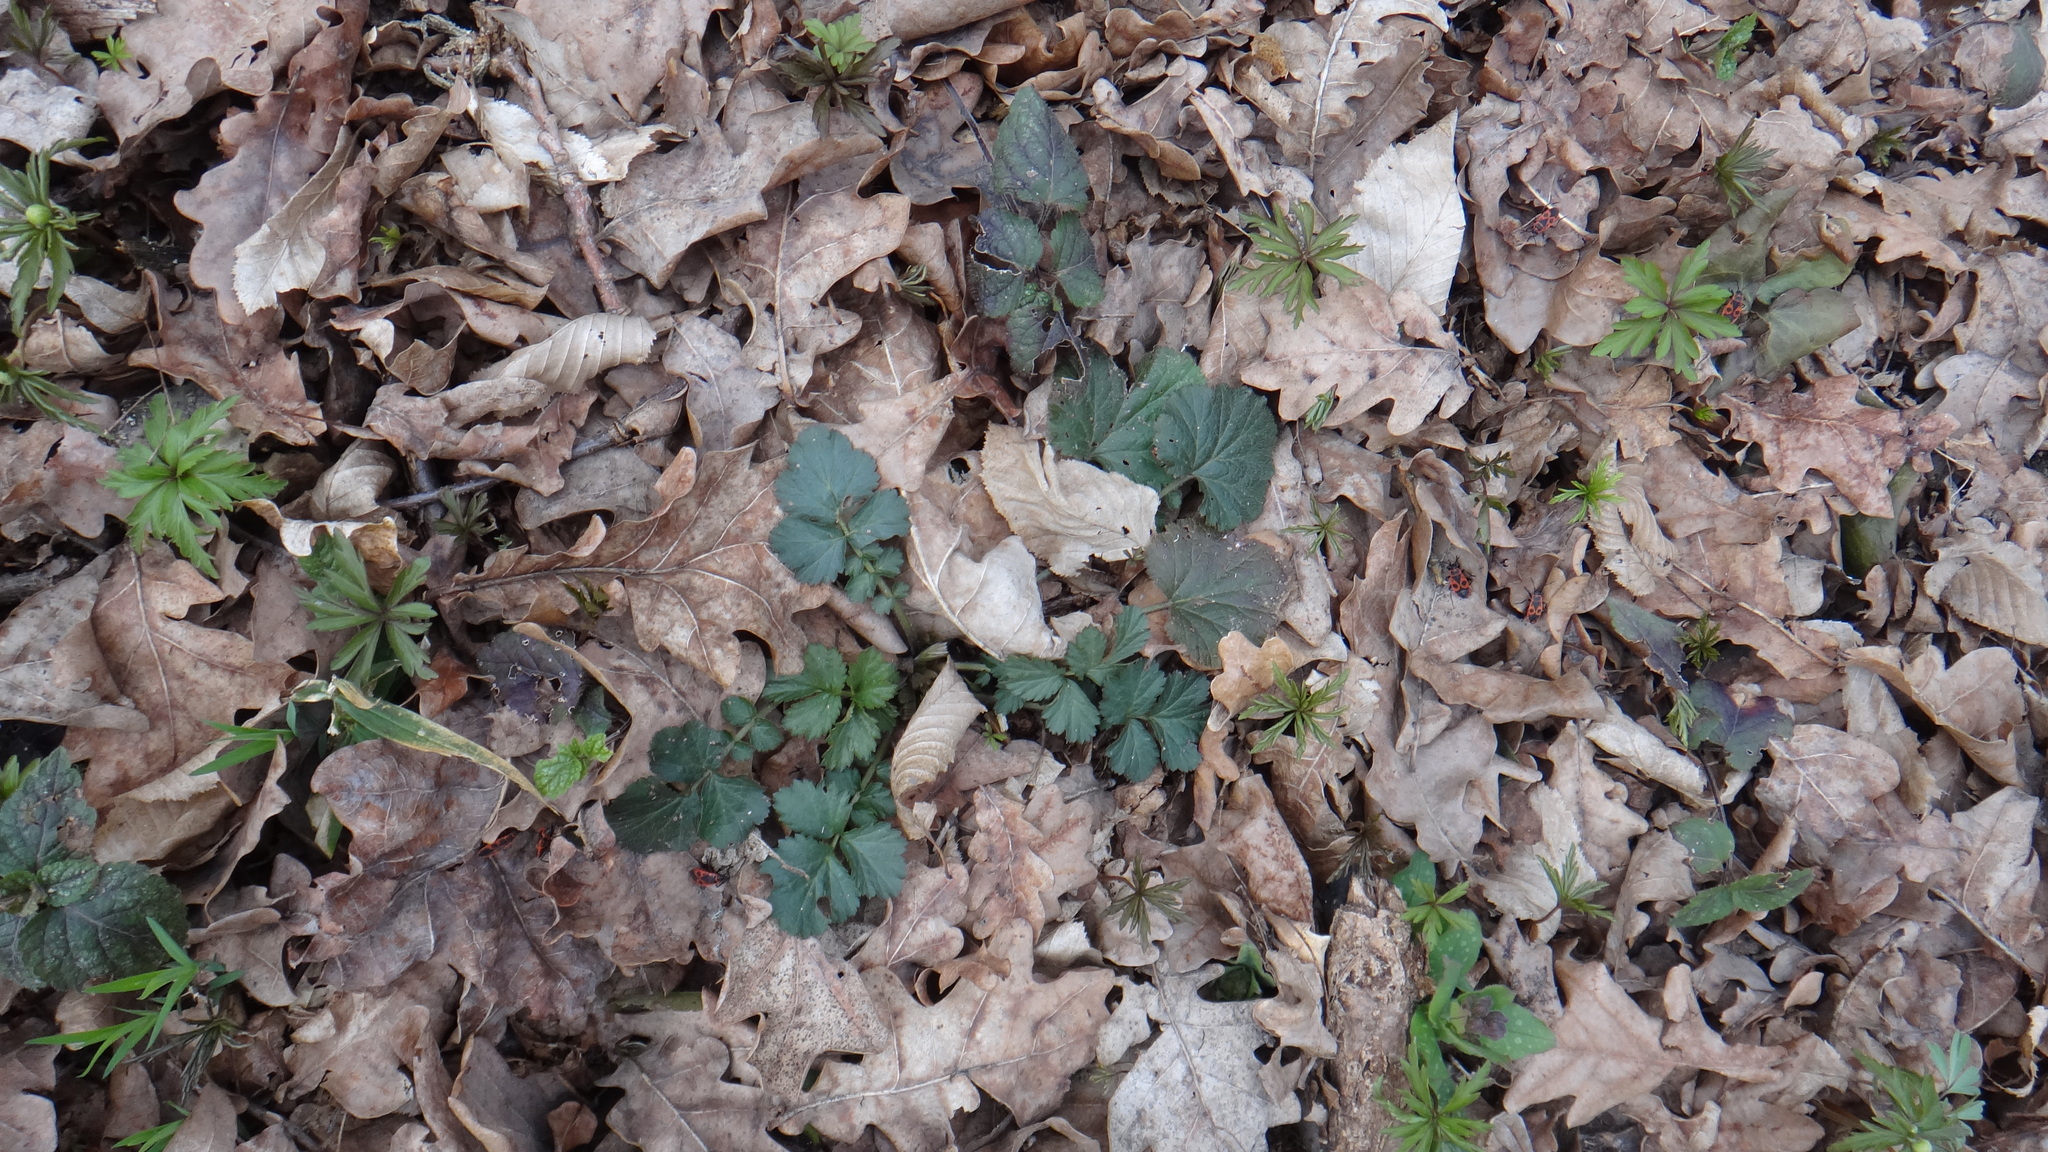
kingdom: Plantae
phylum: Tracheophyta
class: Magnoliopsida
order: Rosales
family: Rosaceae
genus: Geum
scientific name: Geum urbanum
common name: Wood avens
